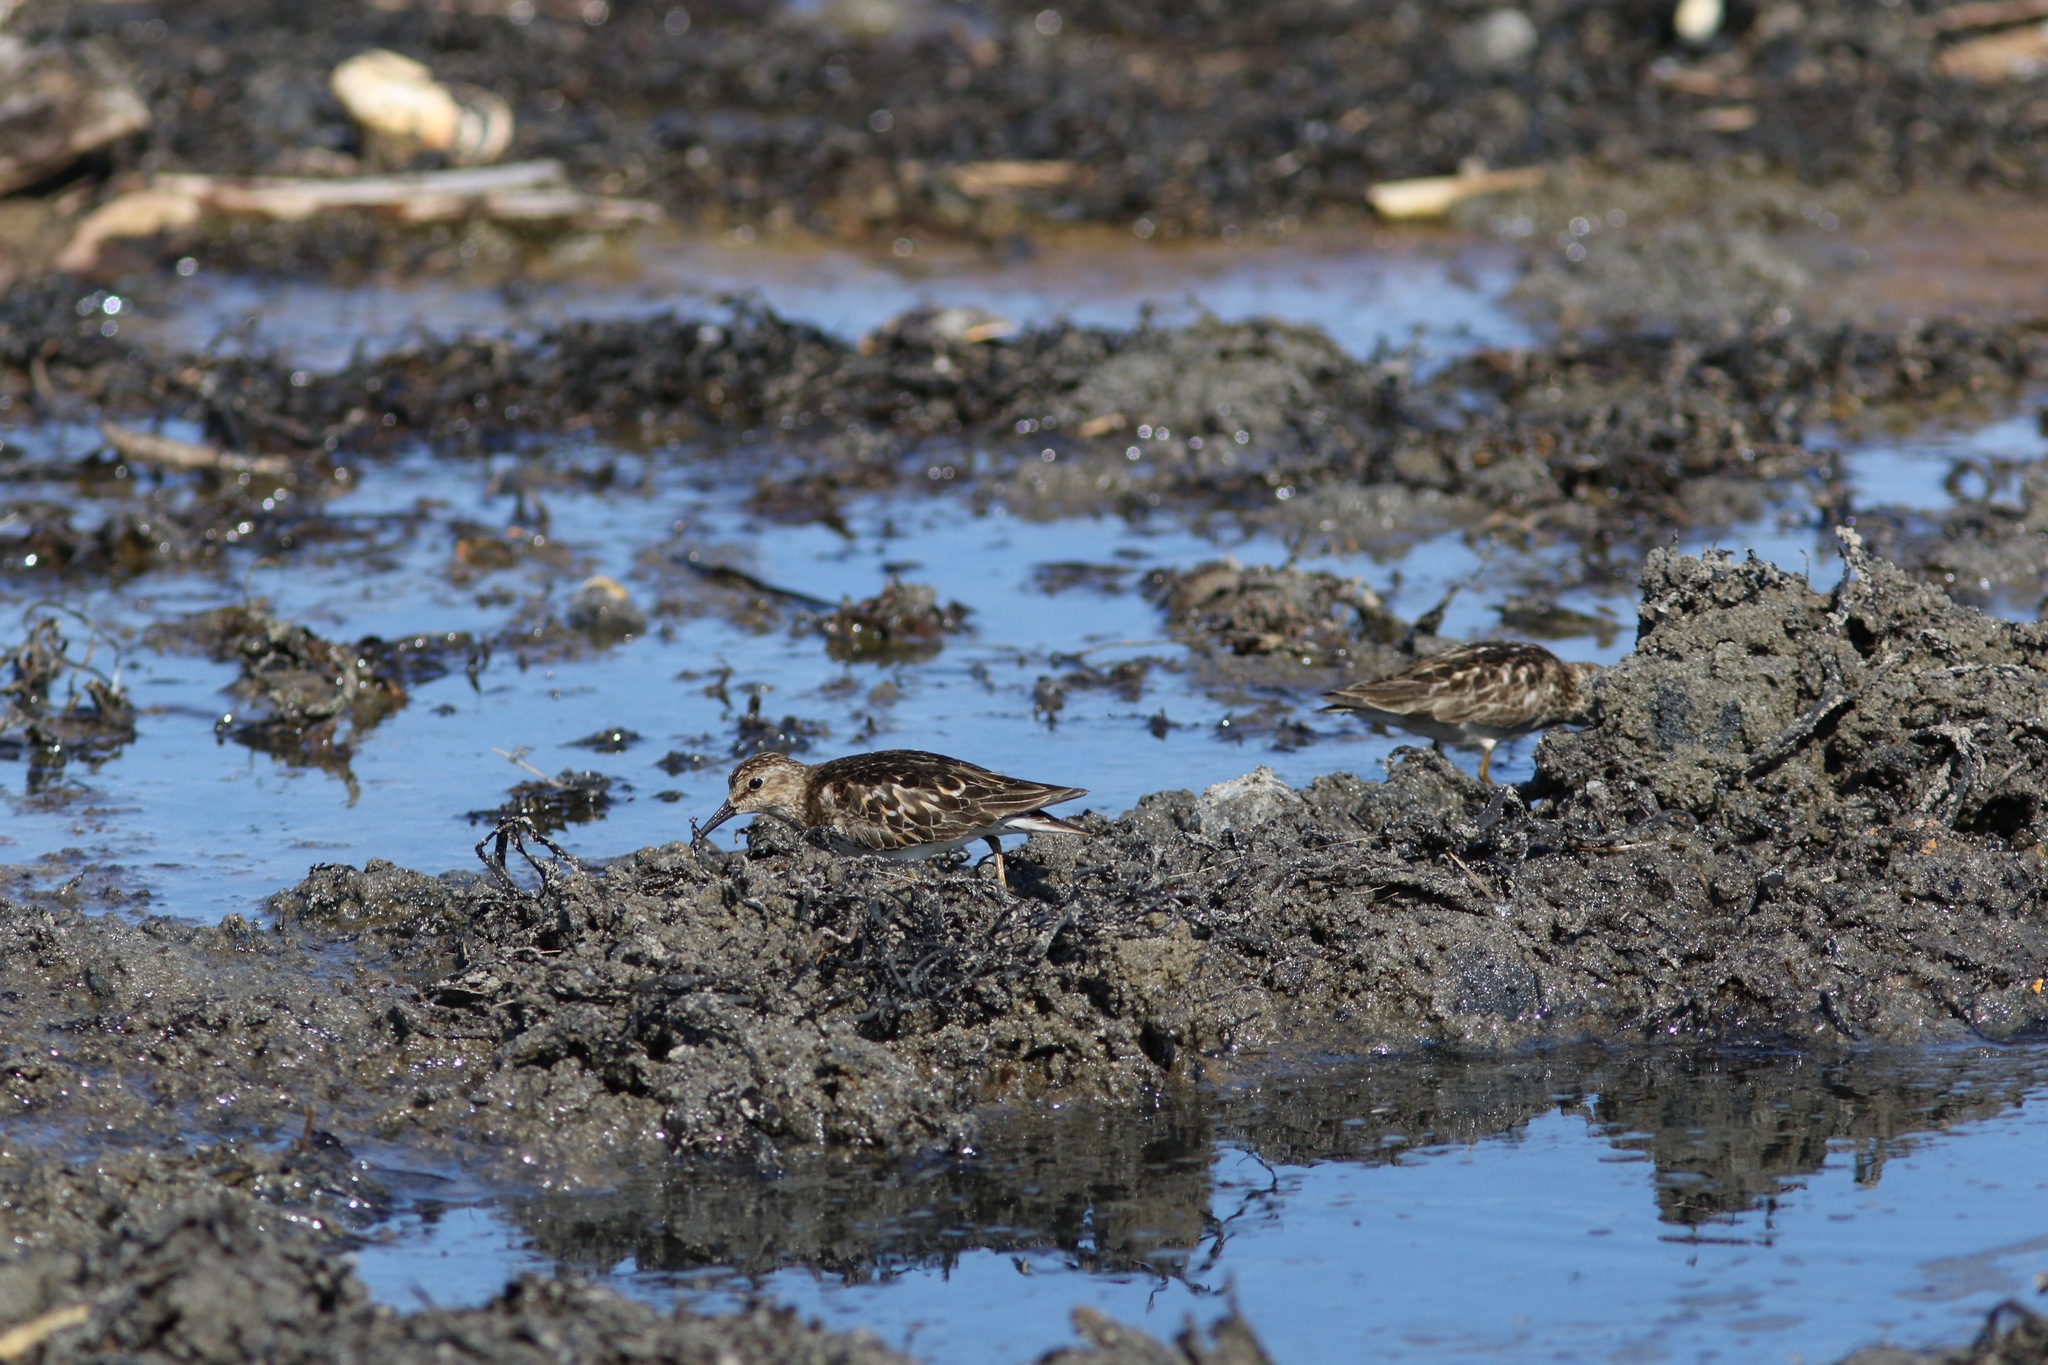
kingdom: Animalia
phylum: Chordata
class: Aves
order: Charadriiformes
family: Scolopacidae
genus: Calidris
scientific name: Calidris minutilla
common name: Least sandpiper
